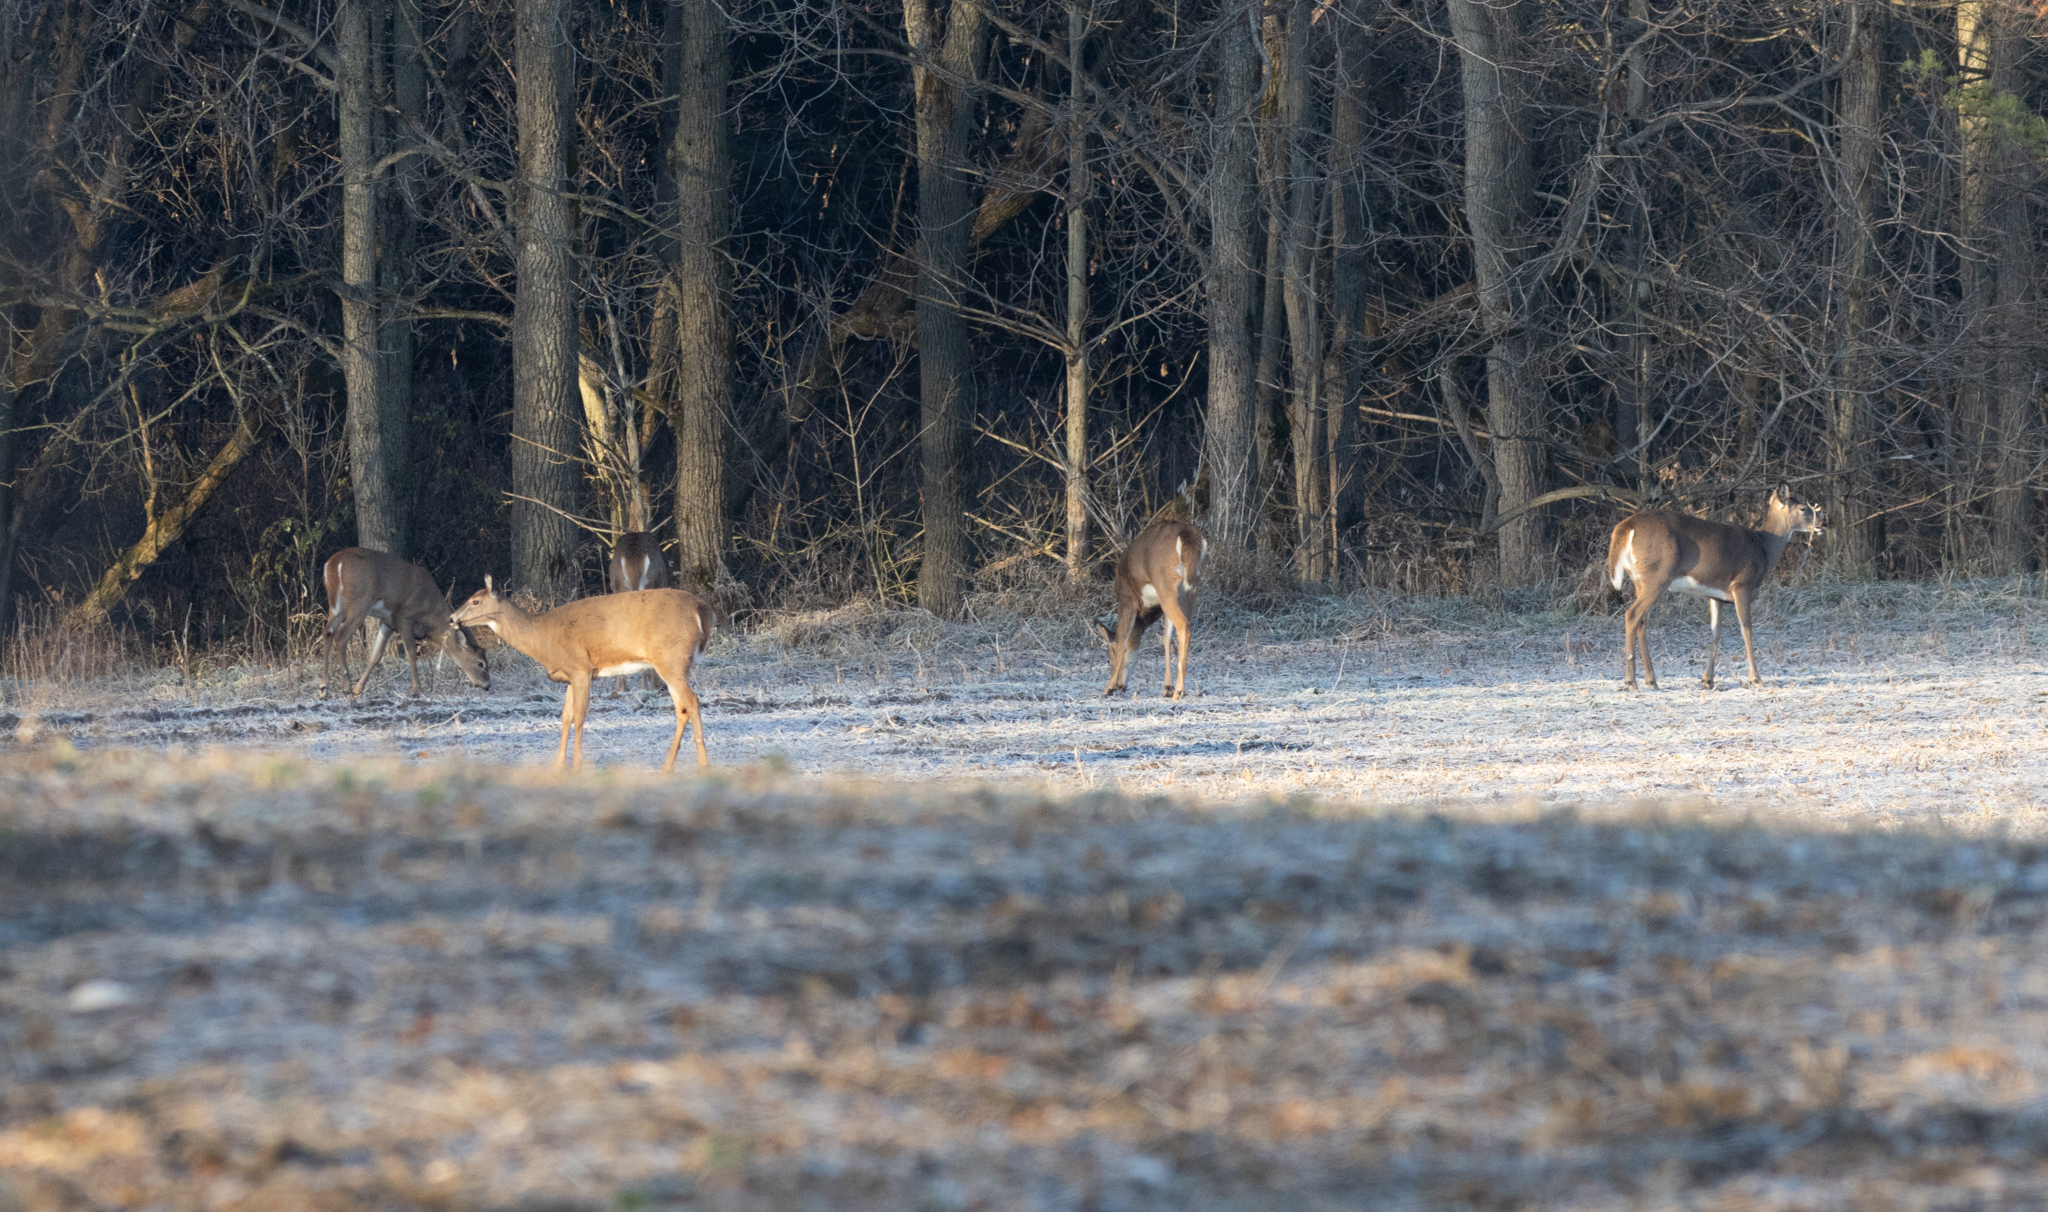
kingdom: Animalia
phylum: Chordata
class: Mammalia
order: Artiodactyla
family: Cervidae
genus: Odocoileus
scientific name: Odocoileus virginianus
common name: White-tailed deer
